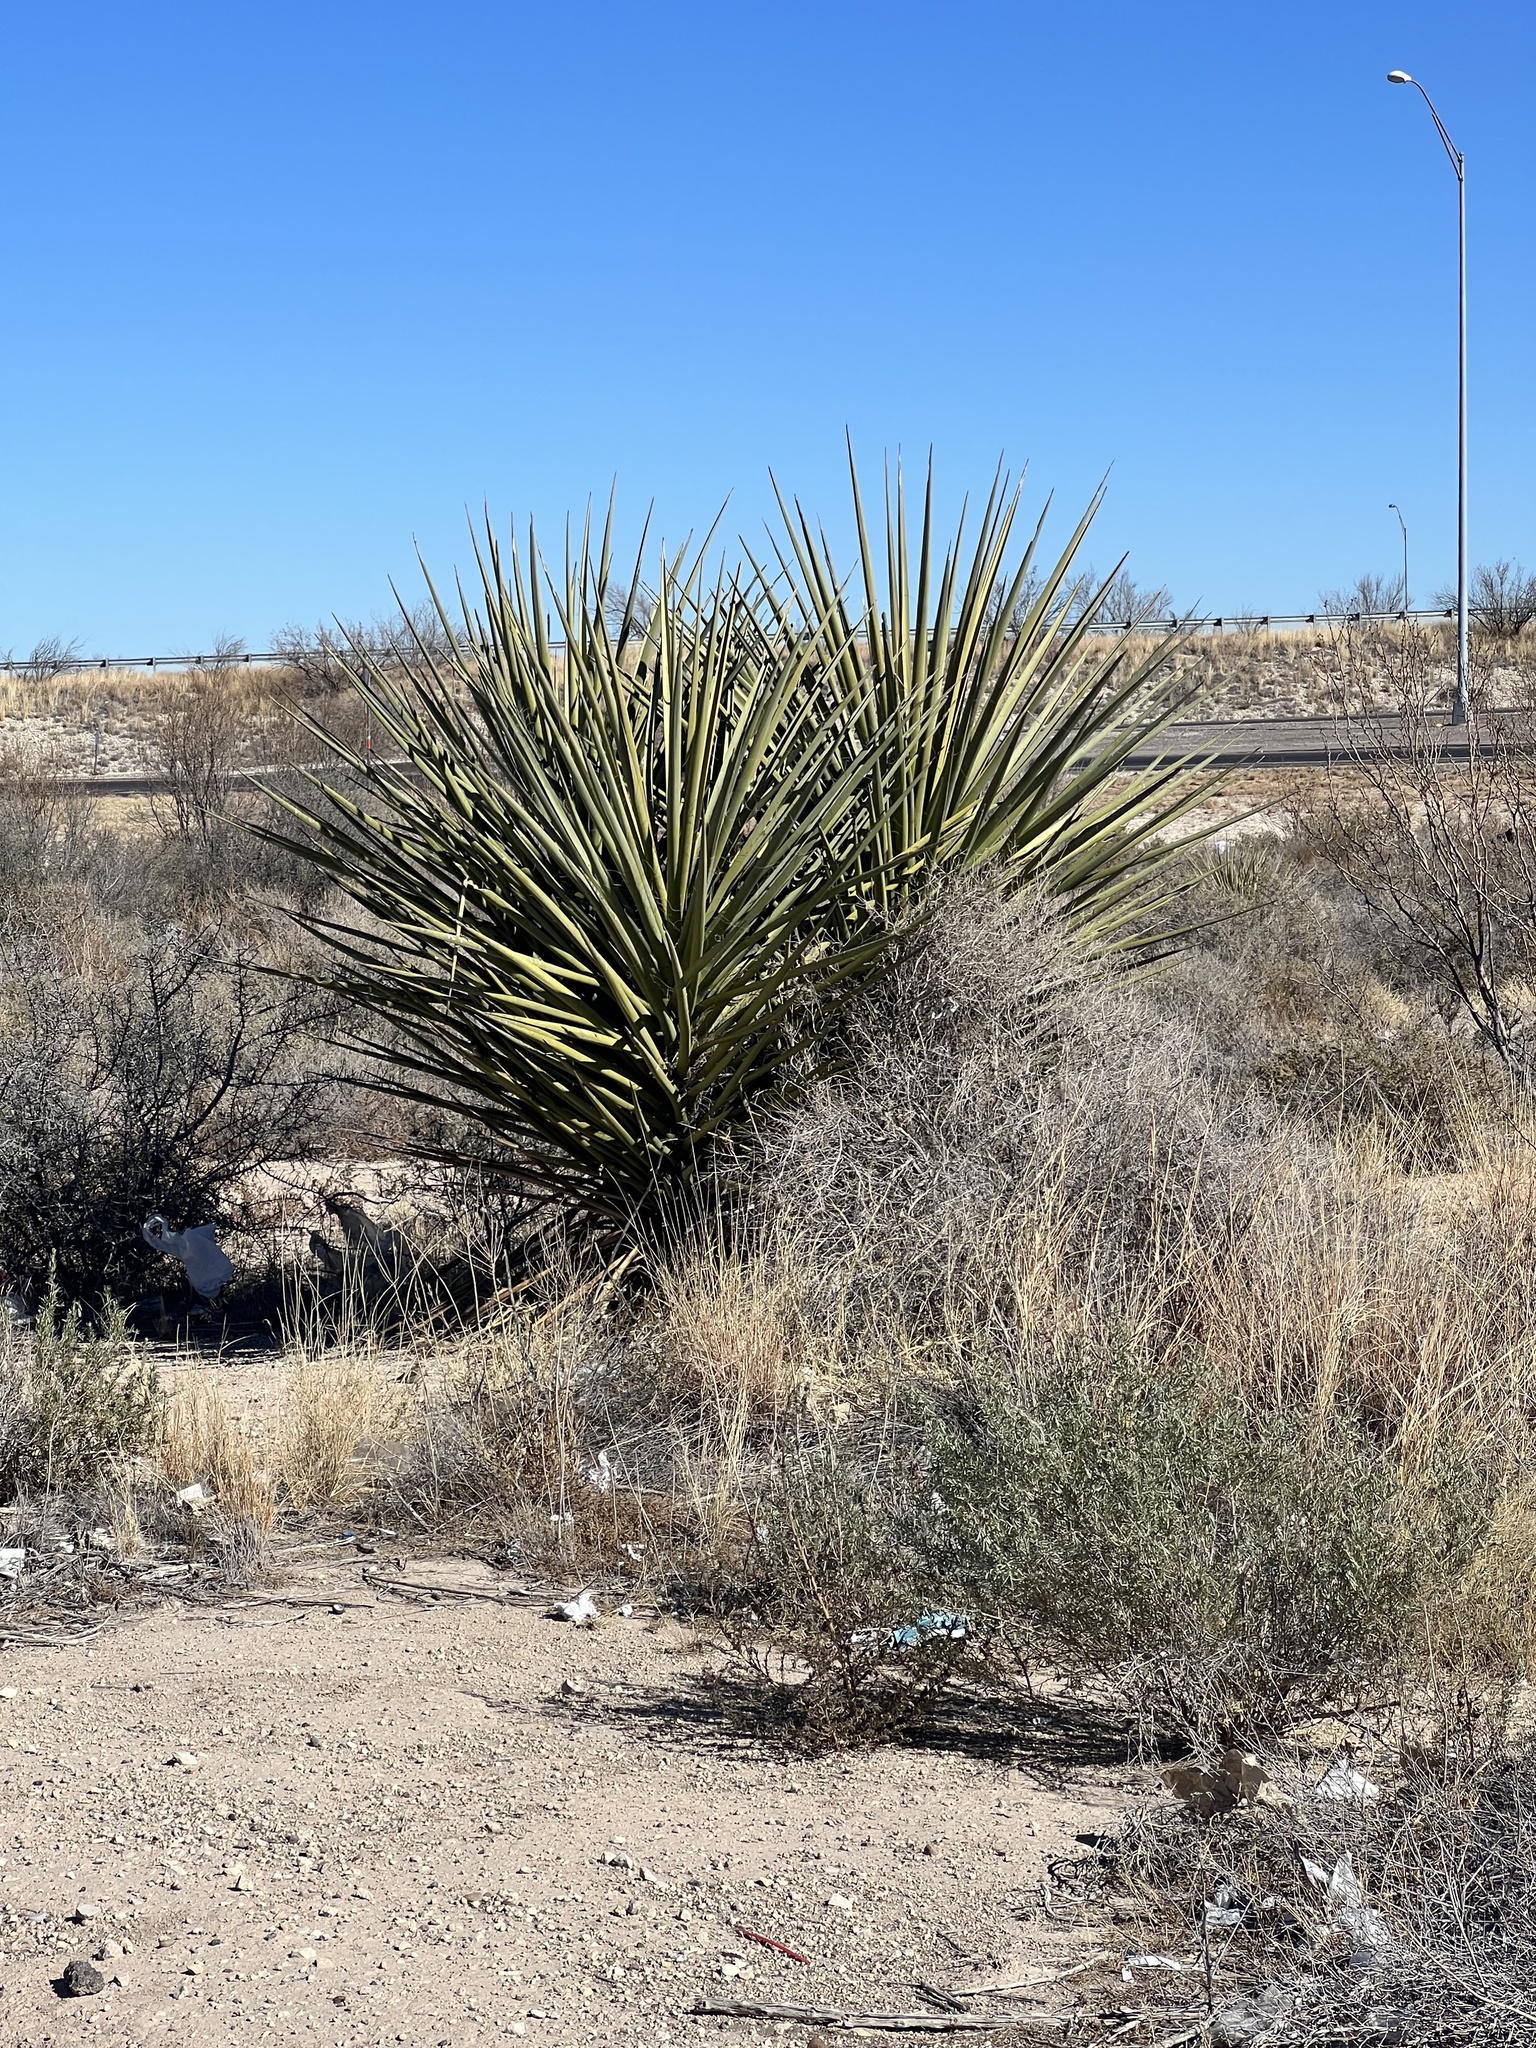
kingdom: Plantae
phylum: Tracheophyta
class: Liliopsida
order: Asparagales
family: Asparagaceae
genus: Yucca
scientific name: Yucca treculiana
